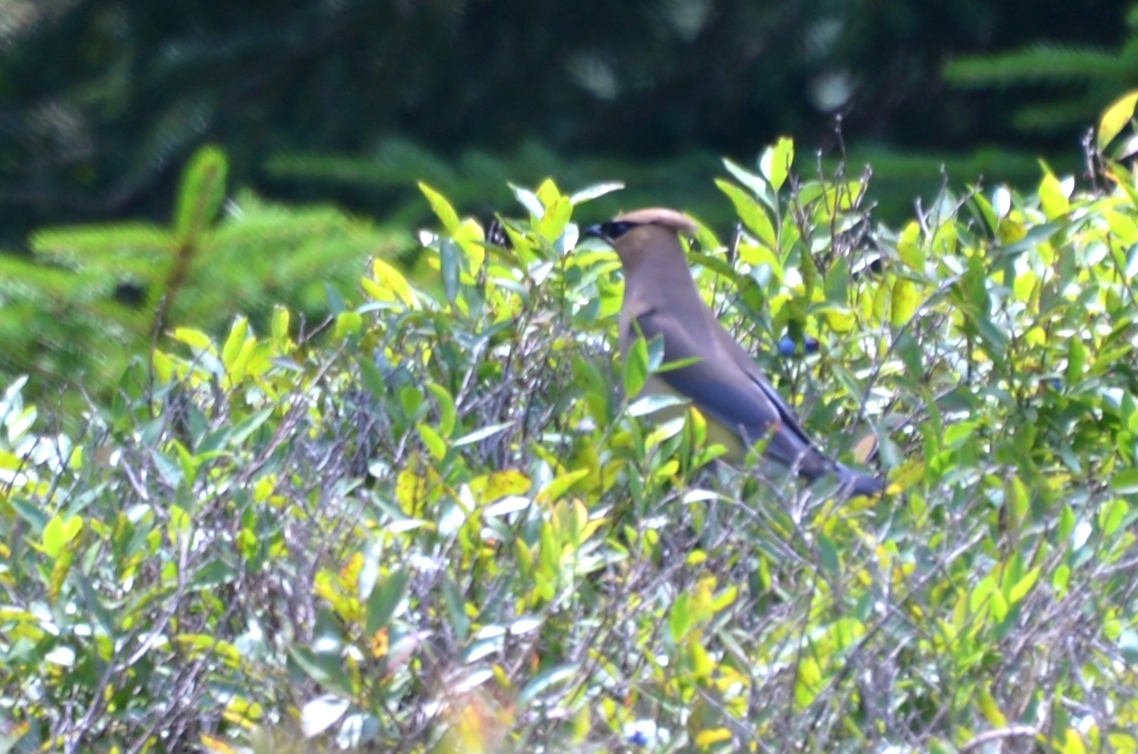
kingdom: Animalia
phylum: Chordata
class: Aves
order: Passeriformes
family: Bombycillidae
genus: Bombycilla
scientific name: Bombycilla cedrorum
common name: Cedar waxwing
